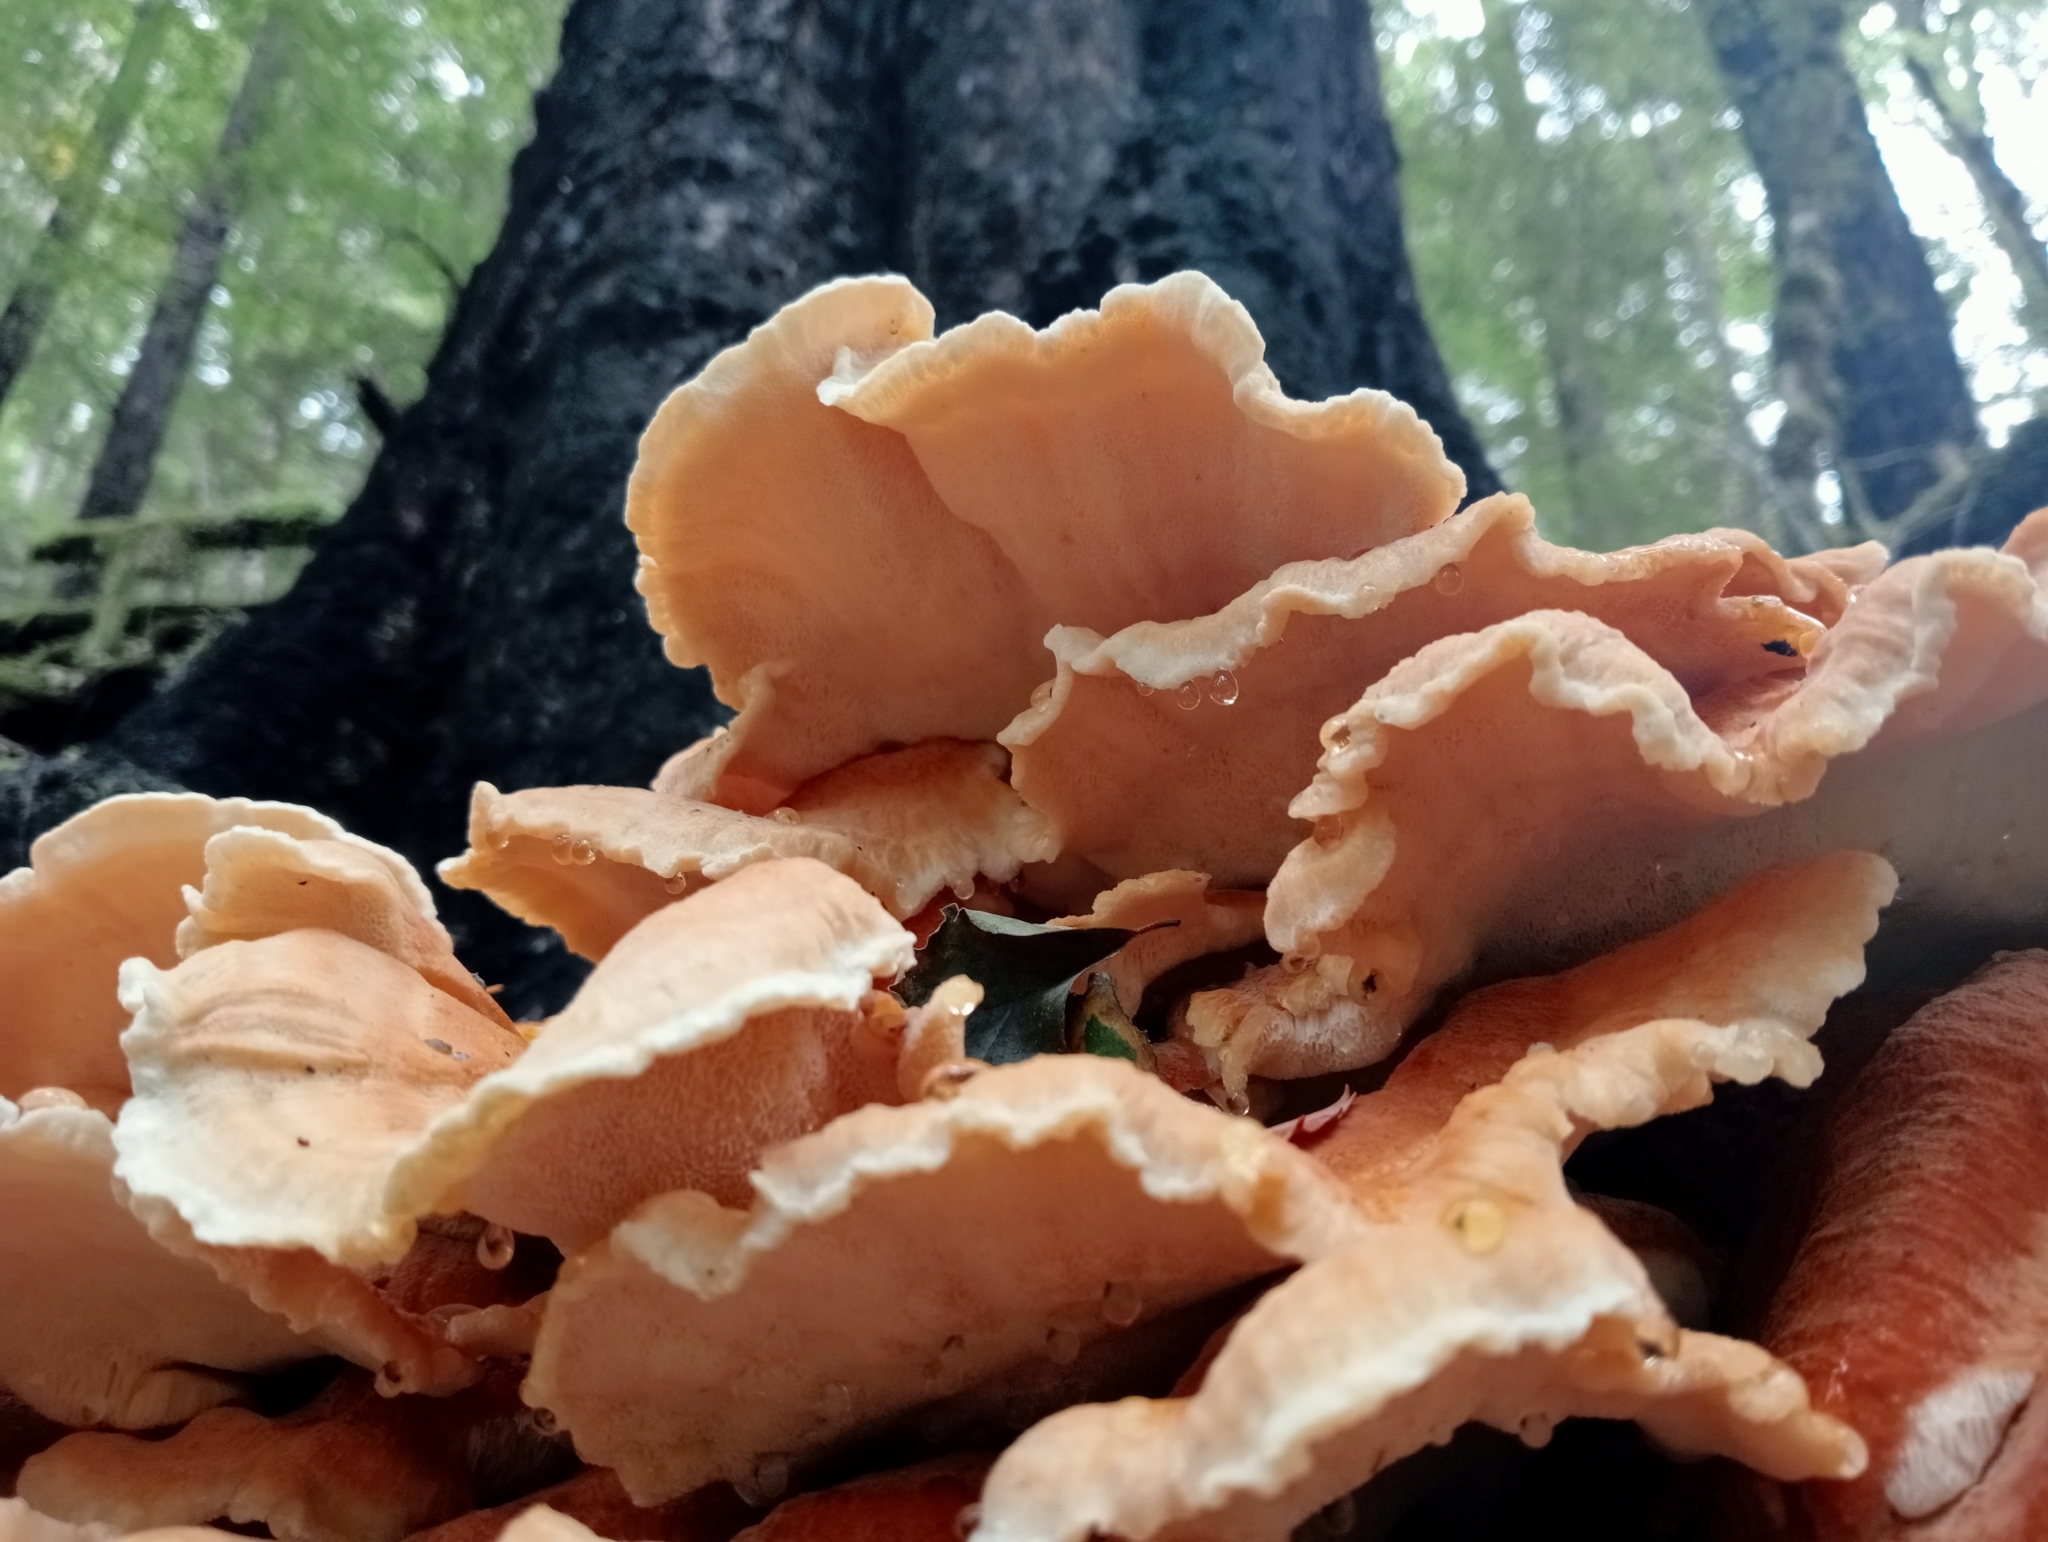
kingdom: Fungi
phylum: Basidiomycota
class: Agaricomycetes
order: Russulales
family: Bondarzewiaceae
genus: Bondarzewia
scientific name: Bondarzewia kirkii
